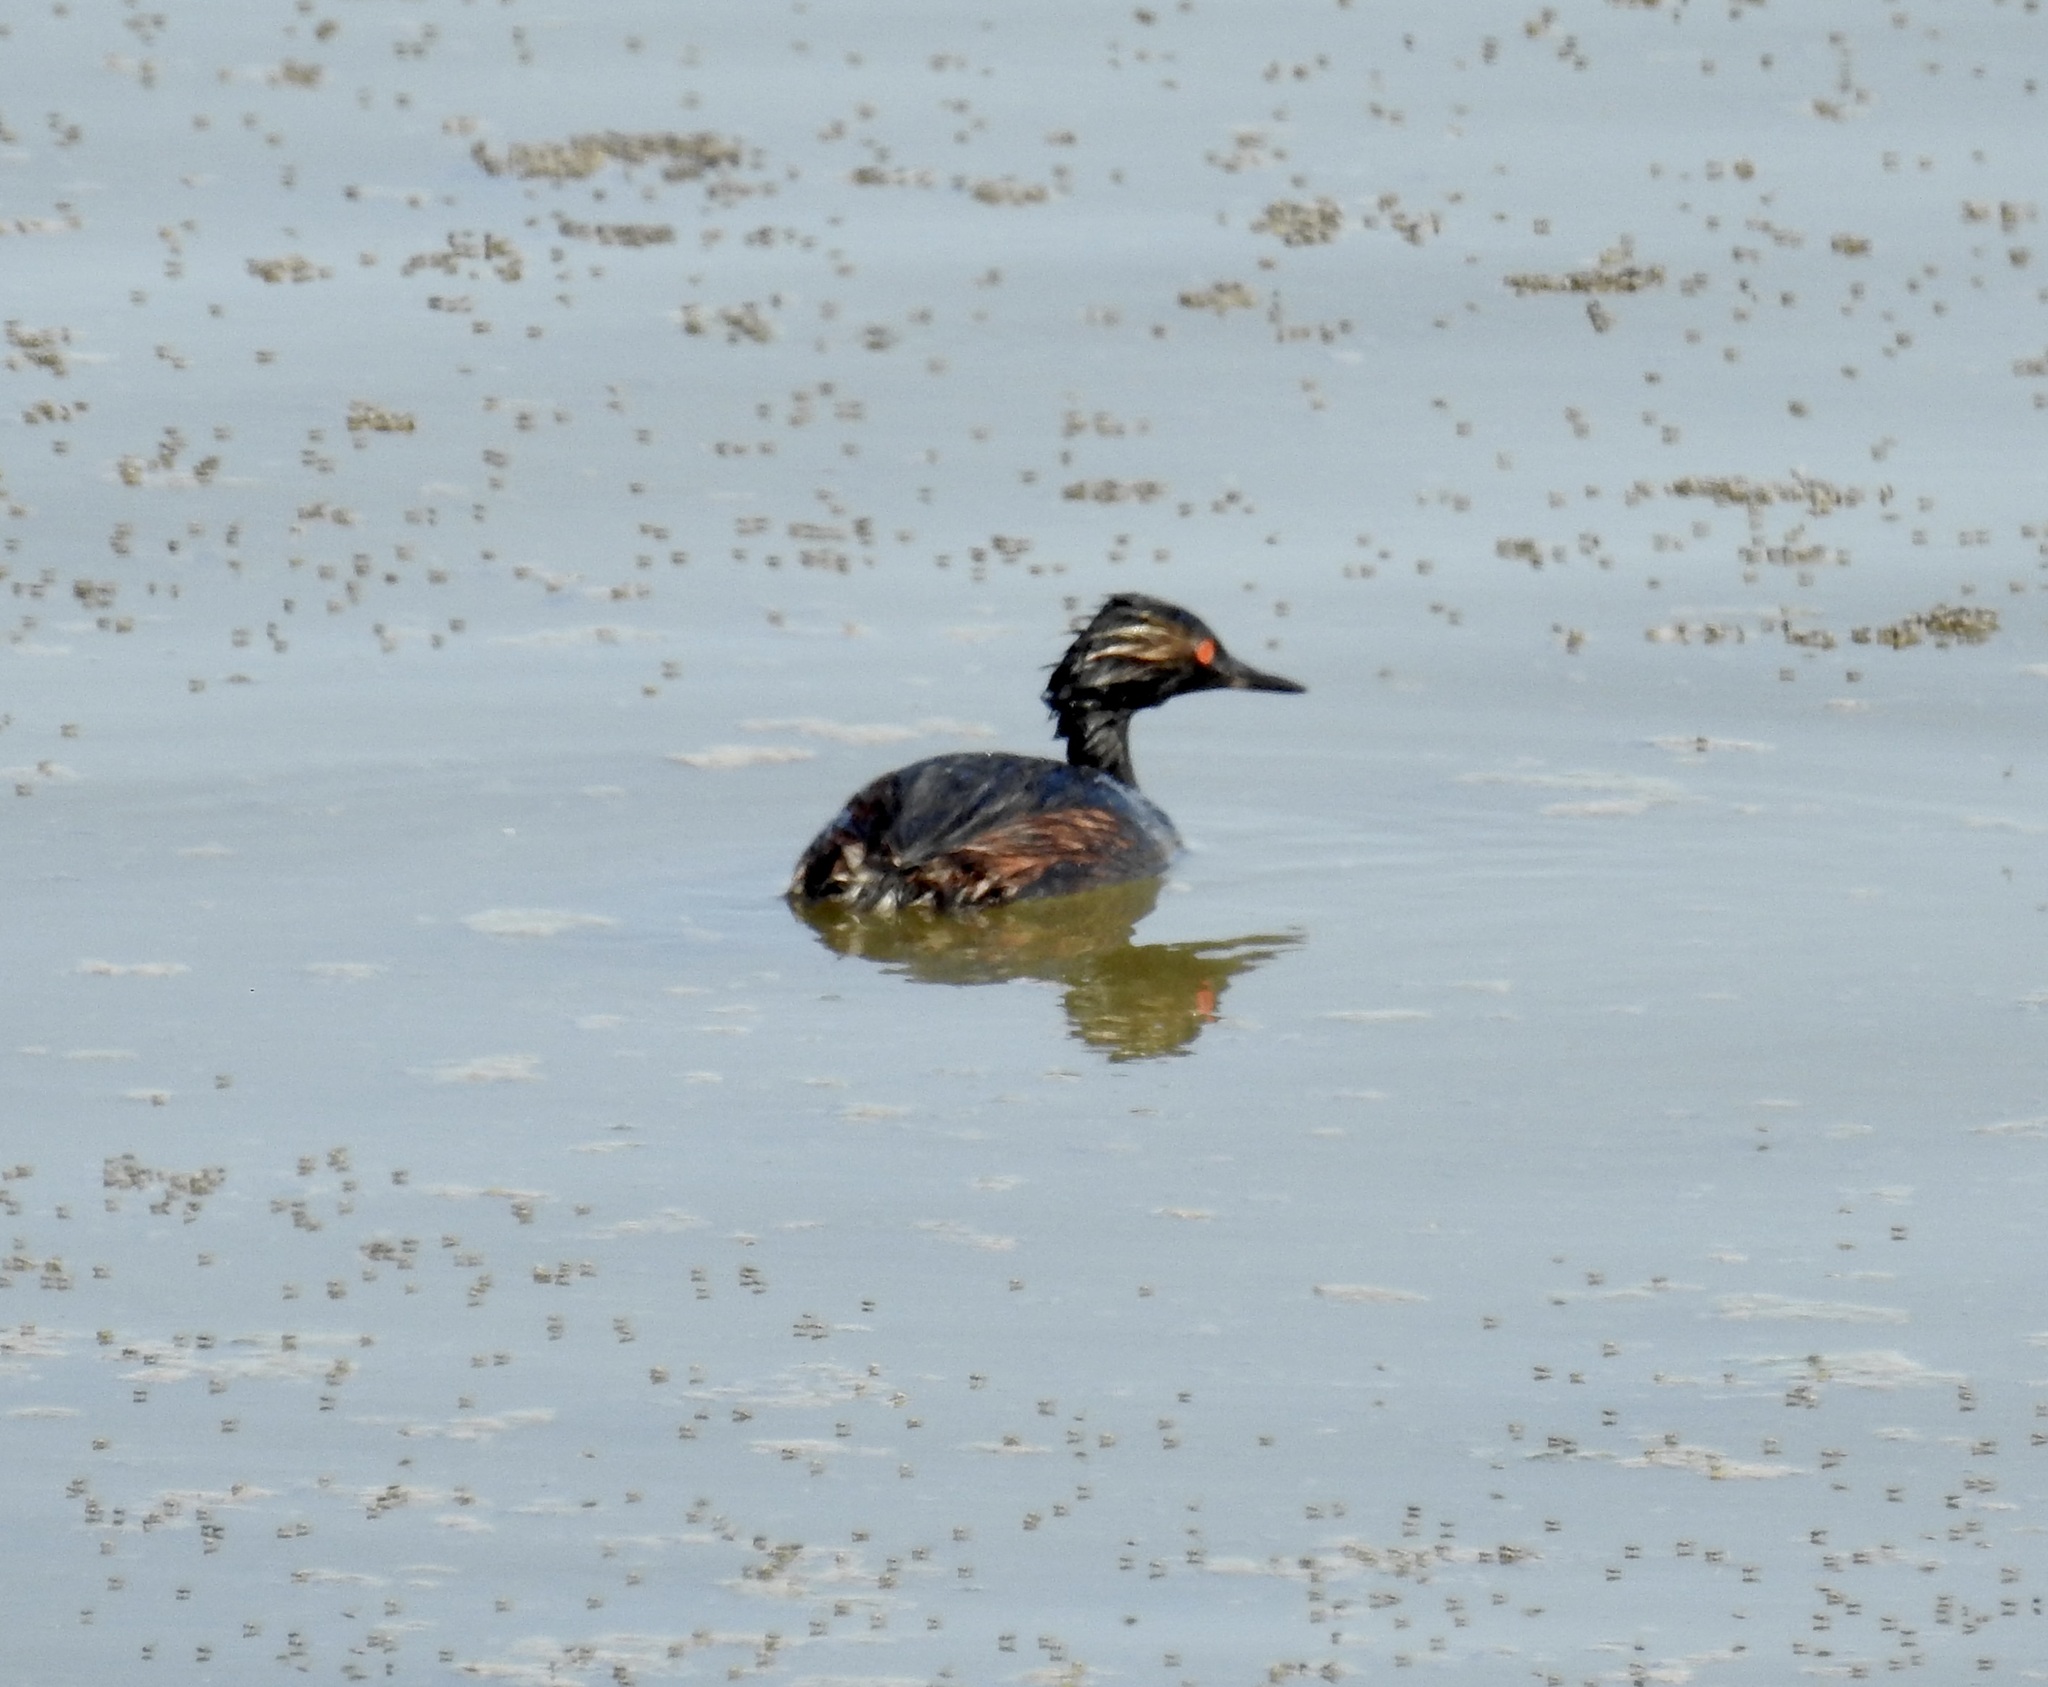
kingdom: Animalia
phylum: Chordata
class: Aves
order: Podicipediformes
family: Podicipedidae
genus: Podiceps
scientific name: Podiceps nigricollis
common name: Black-necked grebe
